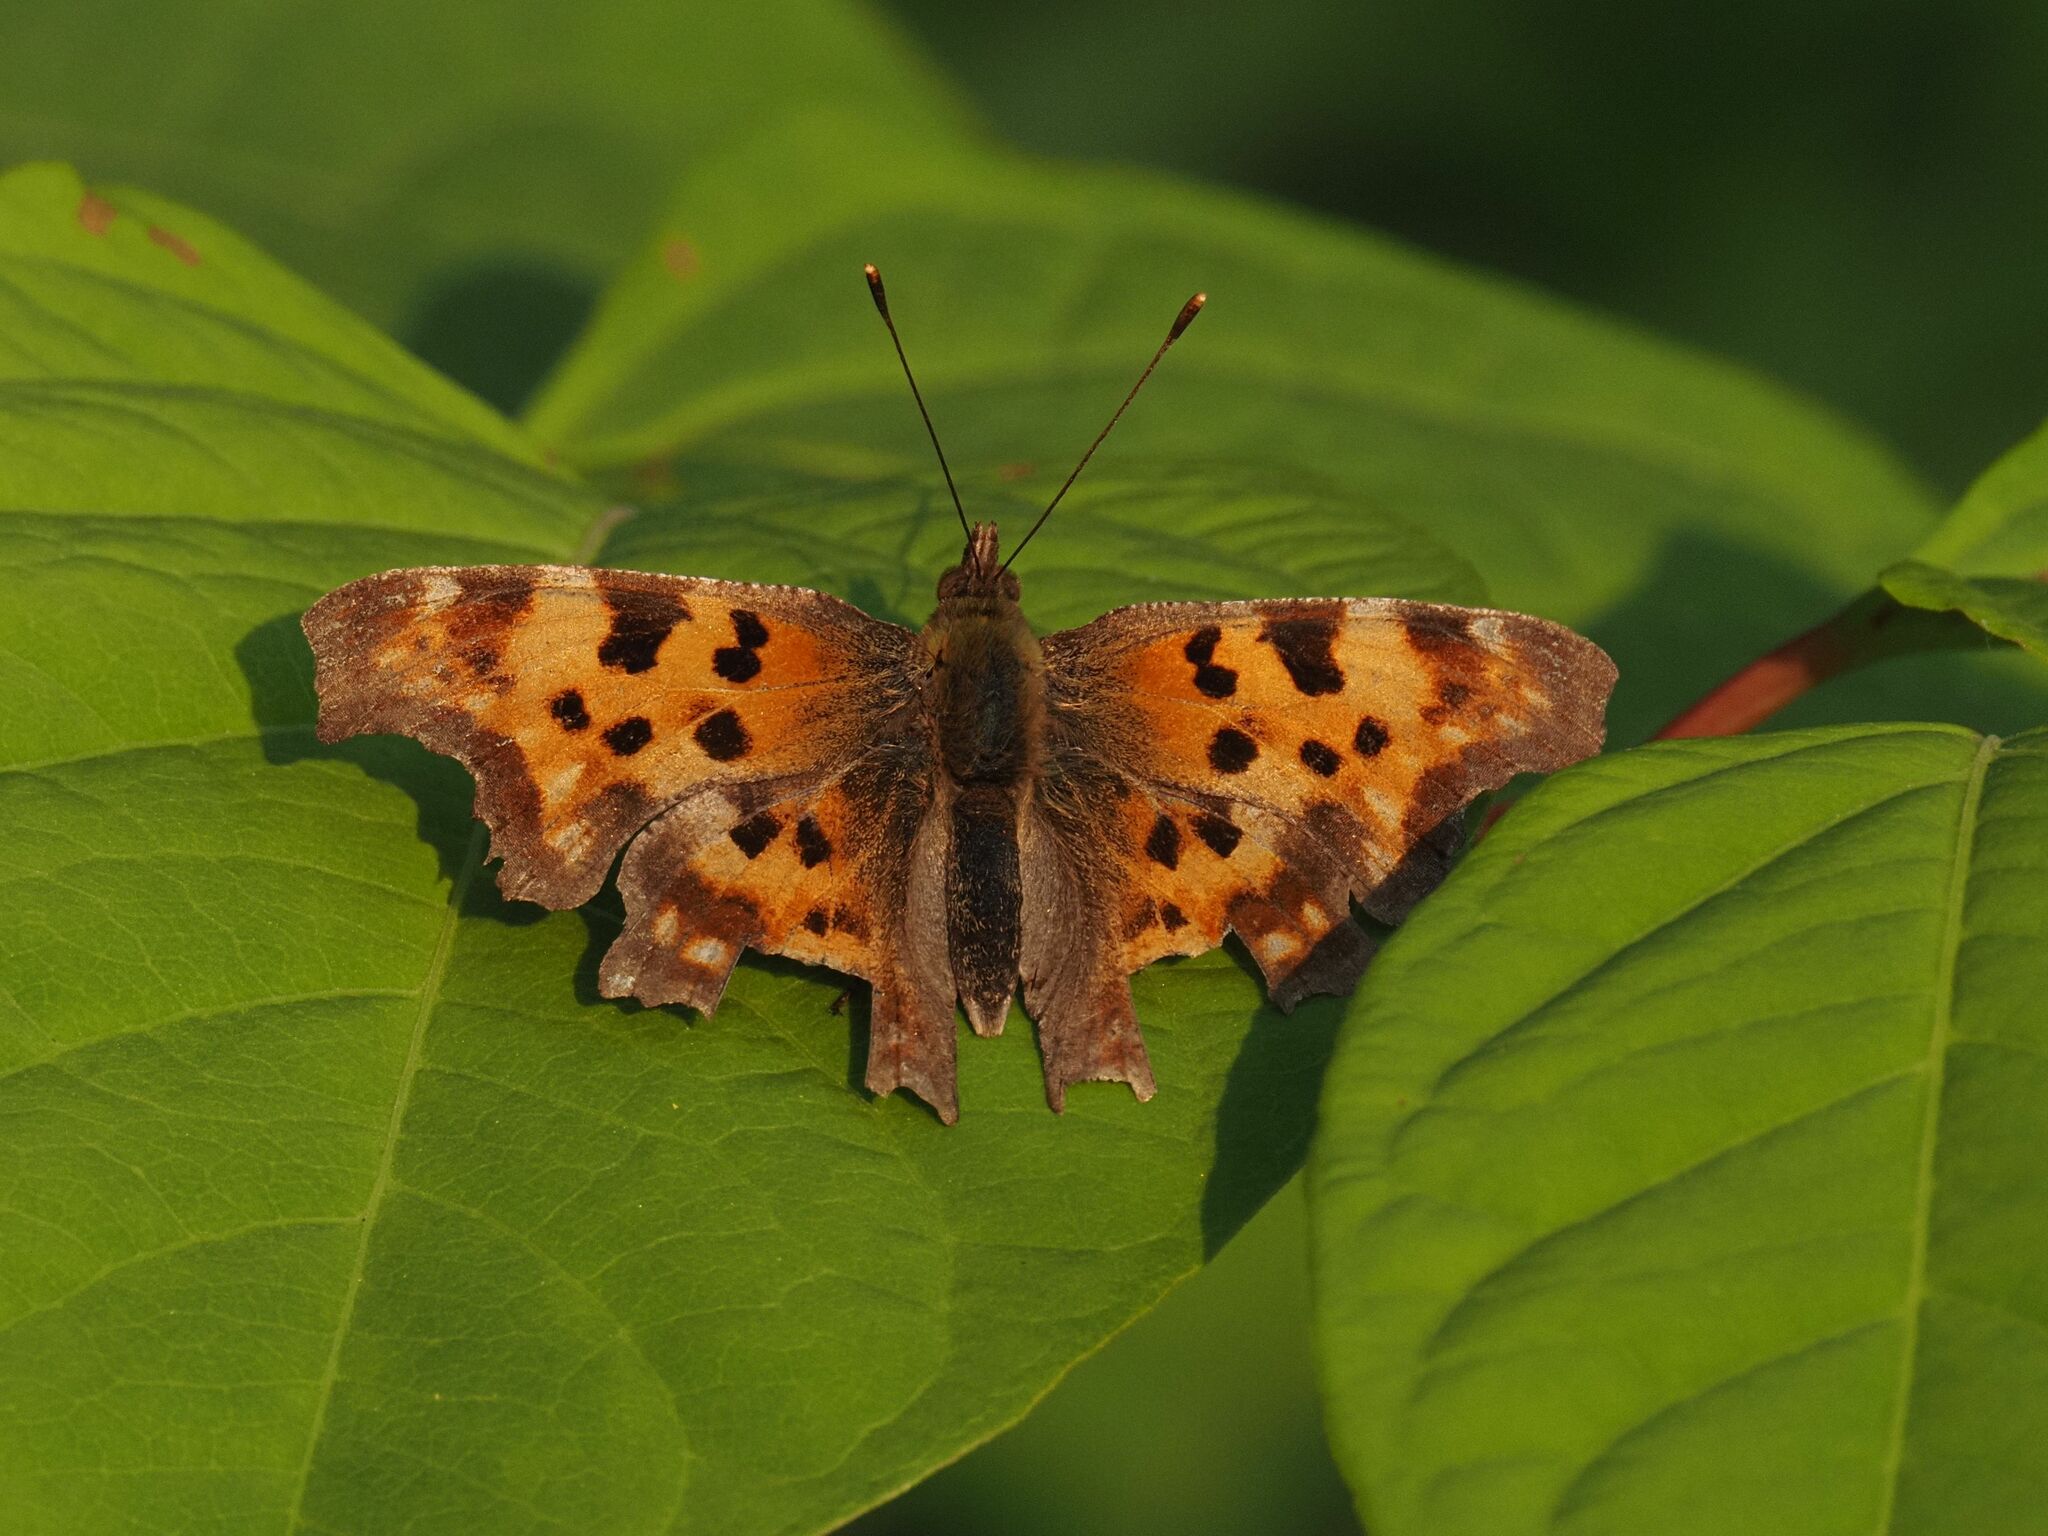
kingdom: Animalia
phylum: Arthropoda
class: Insecta
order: Lepidoptera
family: Nymphalidae
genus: Polygonia
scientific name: Polygonia c-album
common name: Comma
